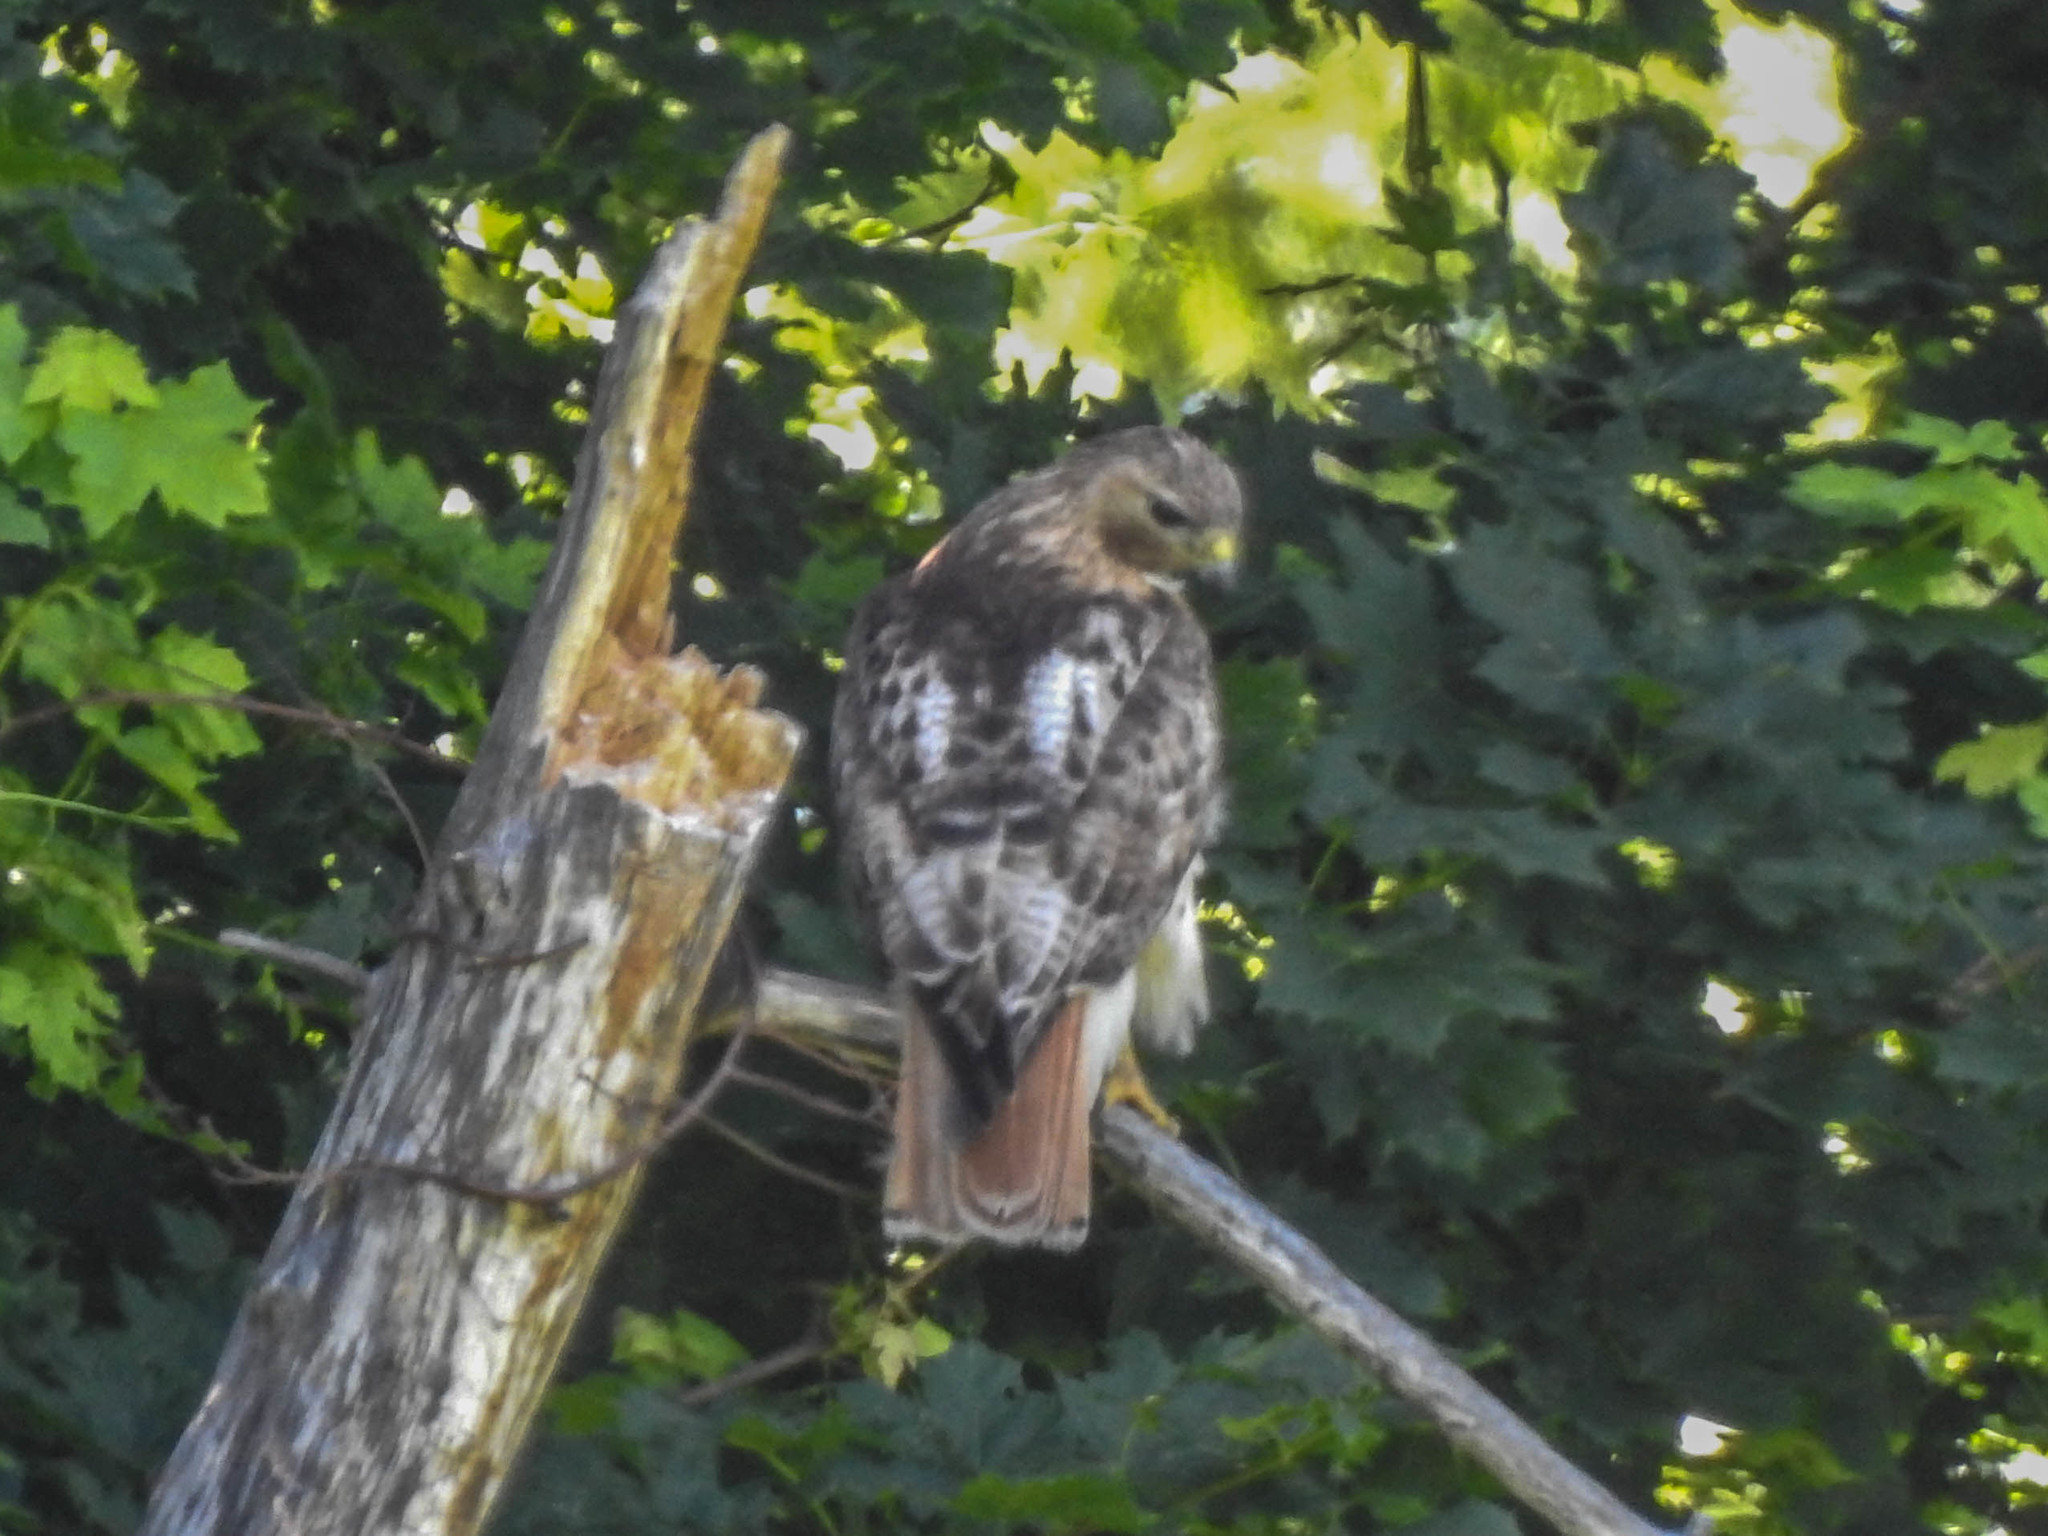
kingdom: Animalia
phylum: Chordata
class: Aves
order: Accipitriformes
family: Accipitridae
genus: Buteo
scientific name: Buteo jamaicensis
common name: Red-tailed hawk
